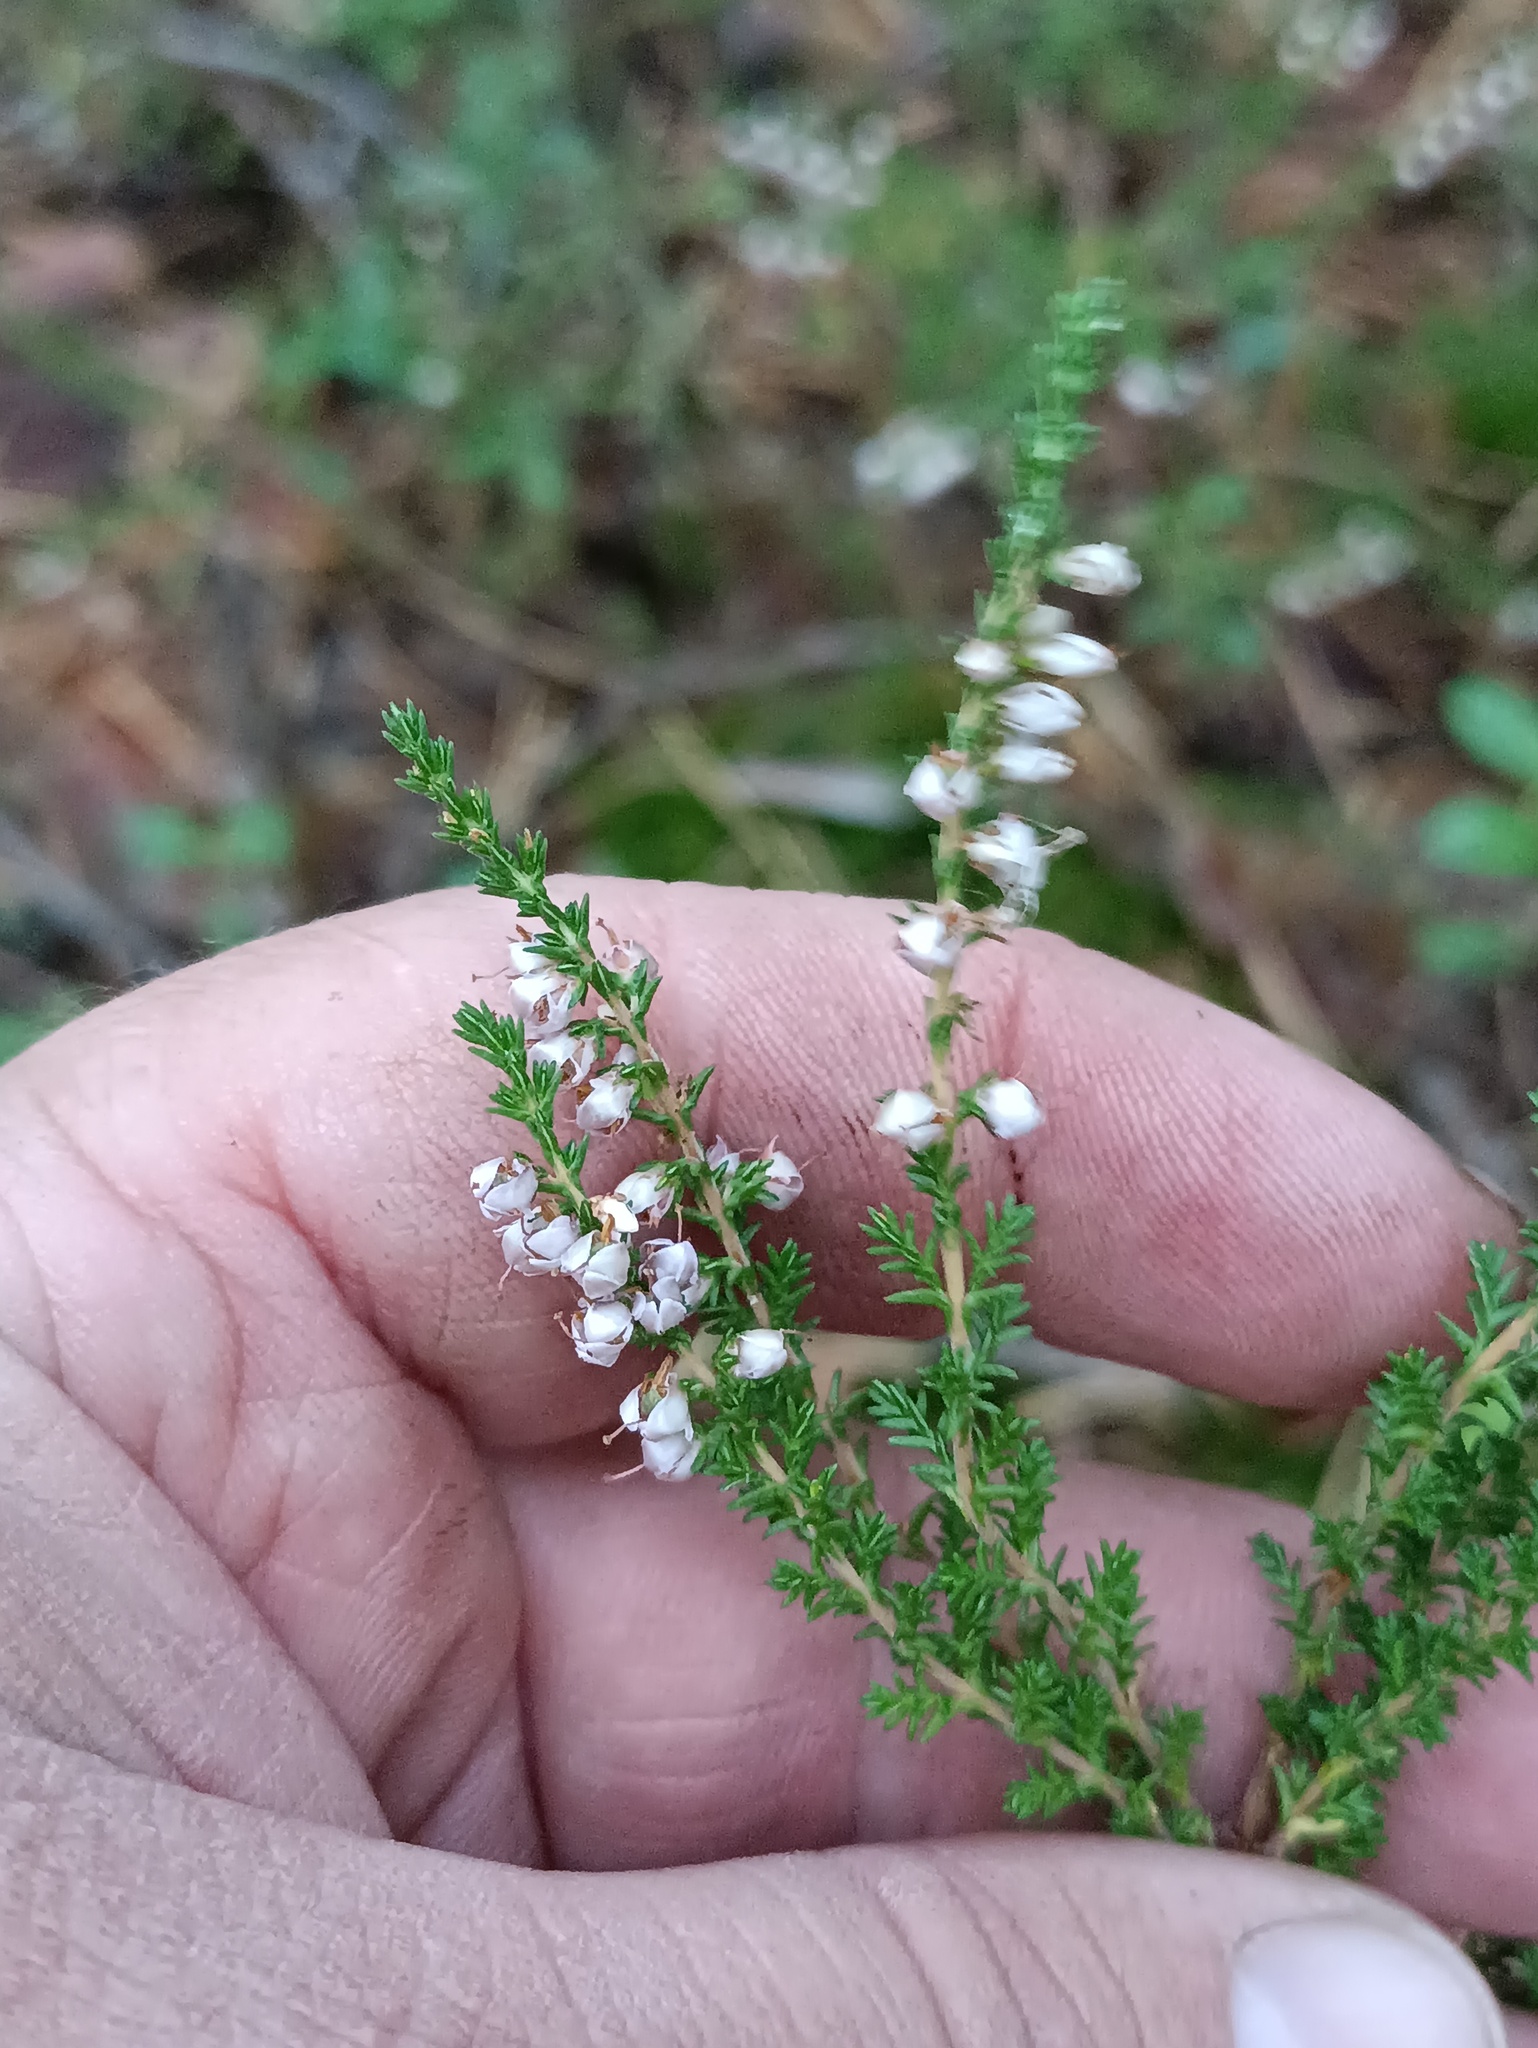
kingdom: Plantae
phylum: Tracheophyta
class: Magnoliopsida
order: Ericales
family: Ericaceae
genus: Calluna
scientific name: Calluna vulgaris
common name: Heather
